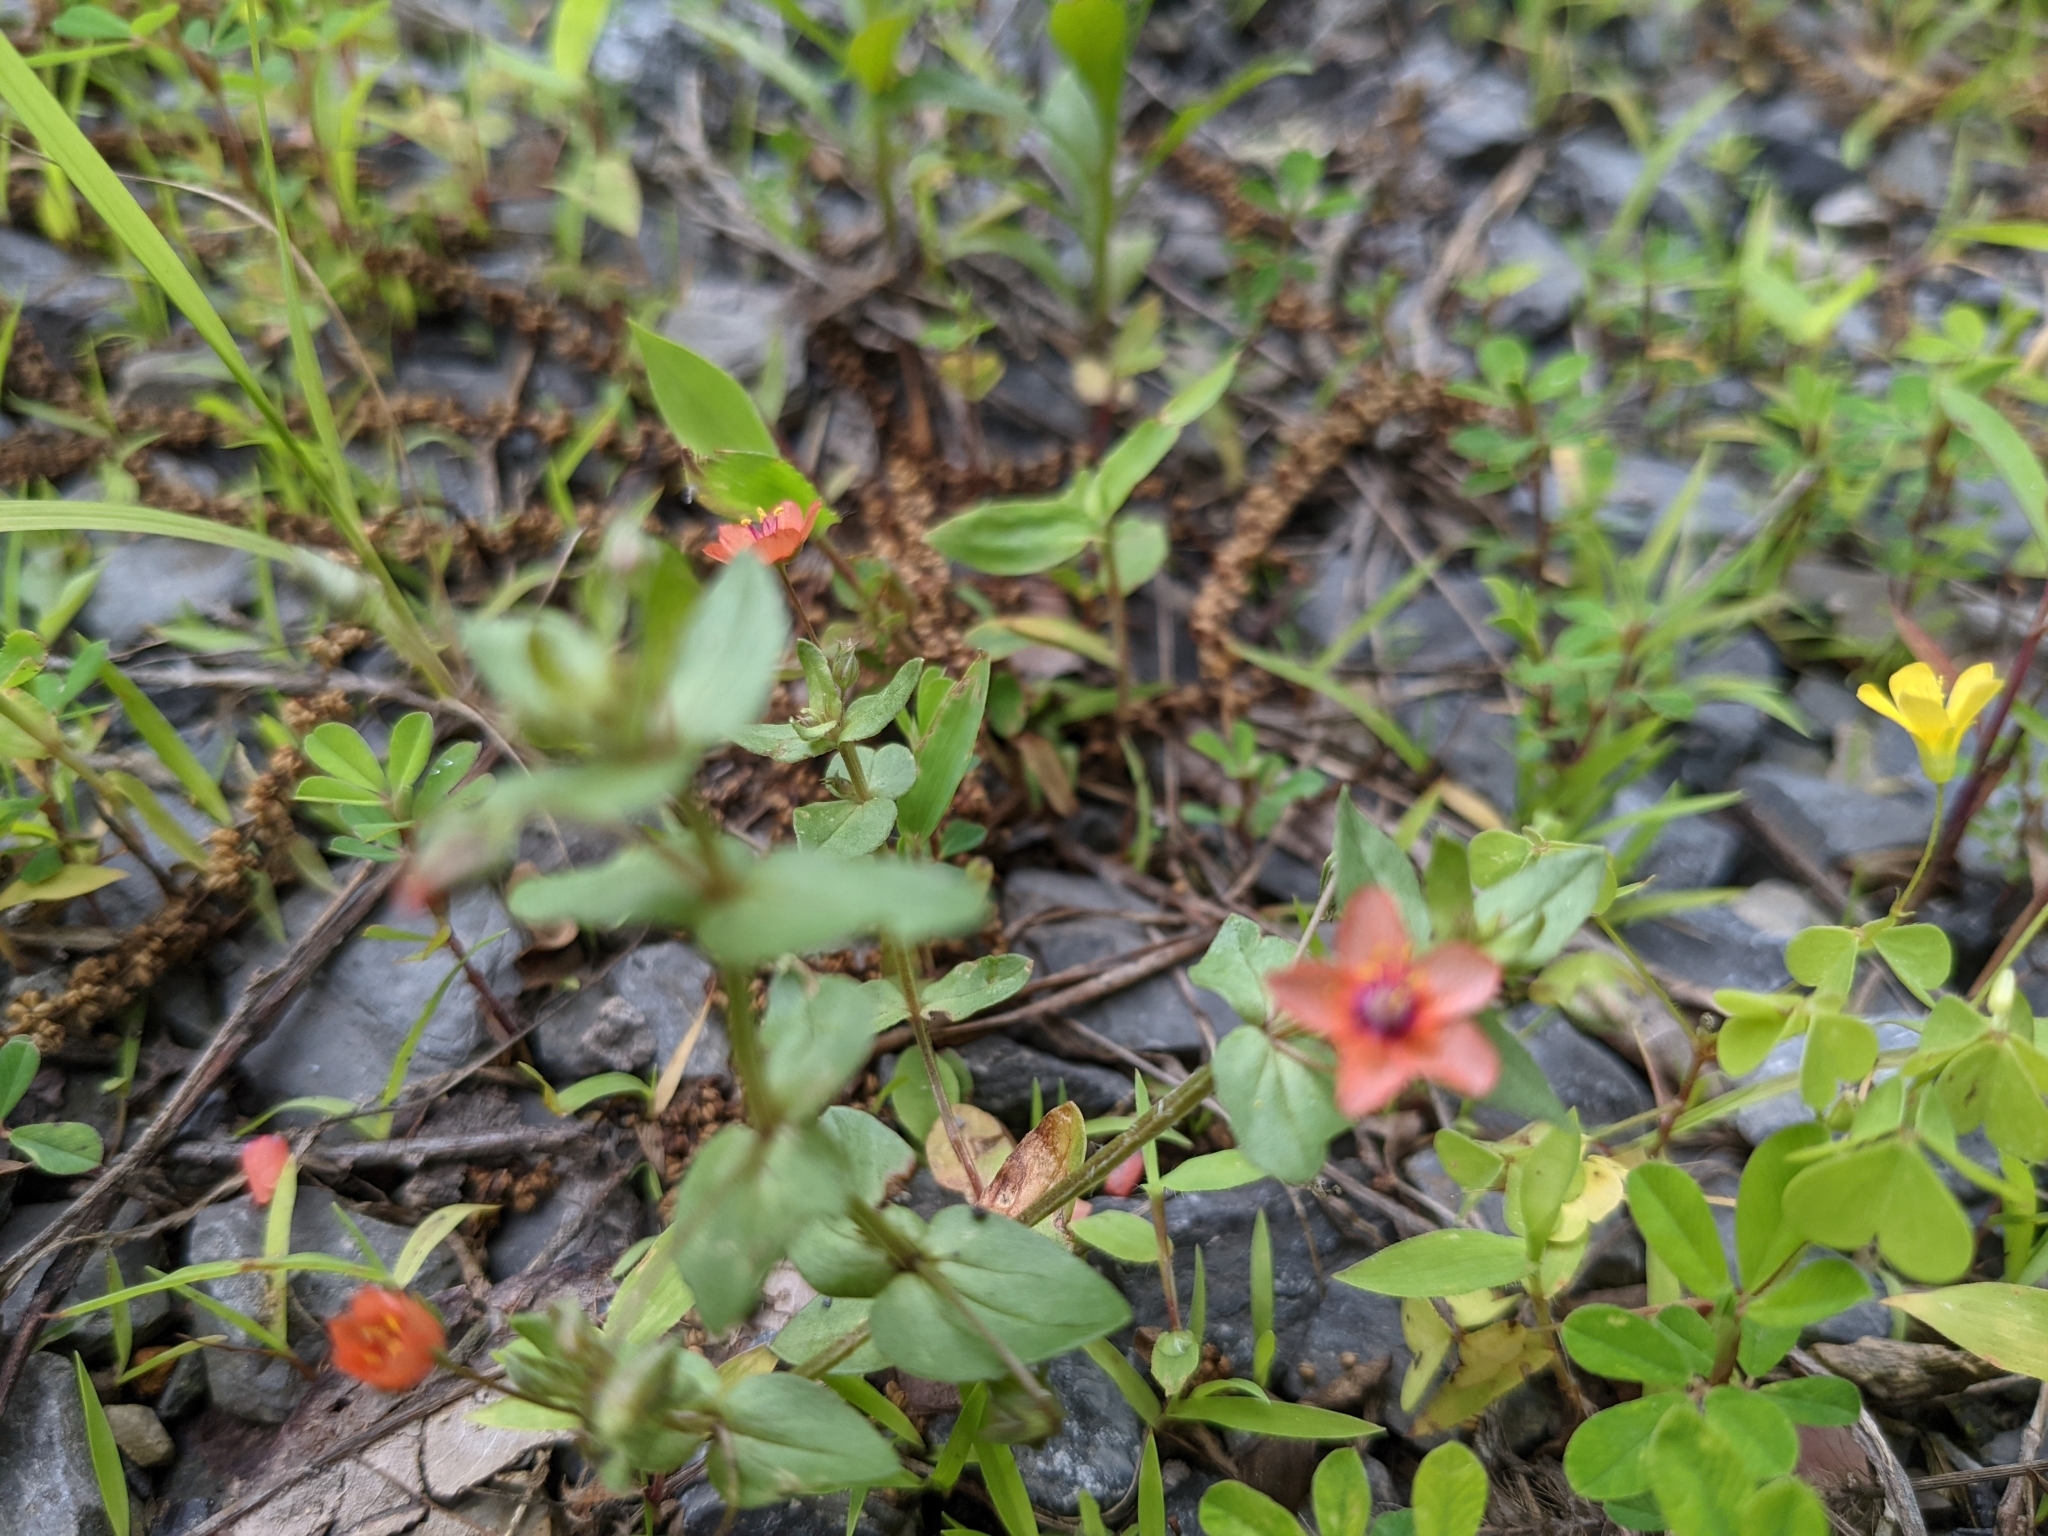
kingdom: Plantae
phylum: Tracheophyta
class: Magnoliopsida
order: Ericales
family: Primulaceae
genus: Lysimachia
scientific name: Lysimachia arvensis
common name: Scarlet pimpernel
